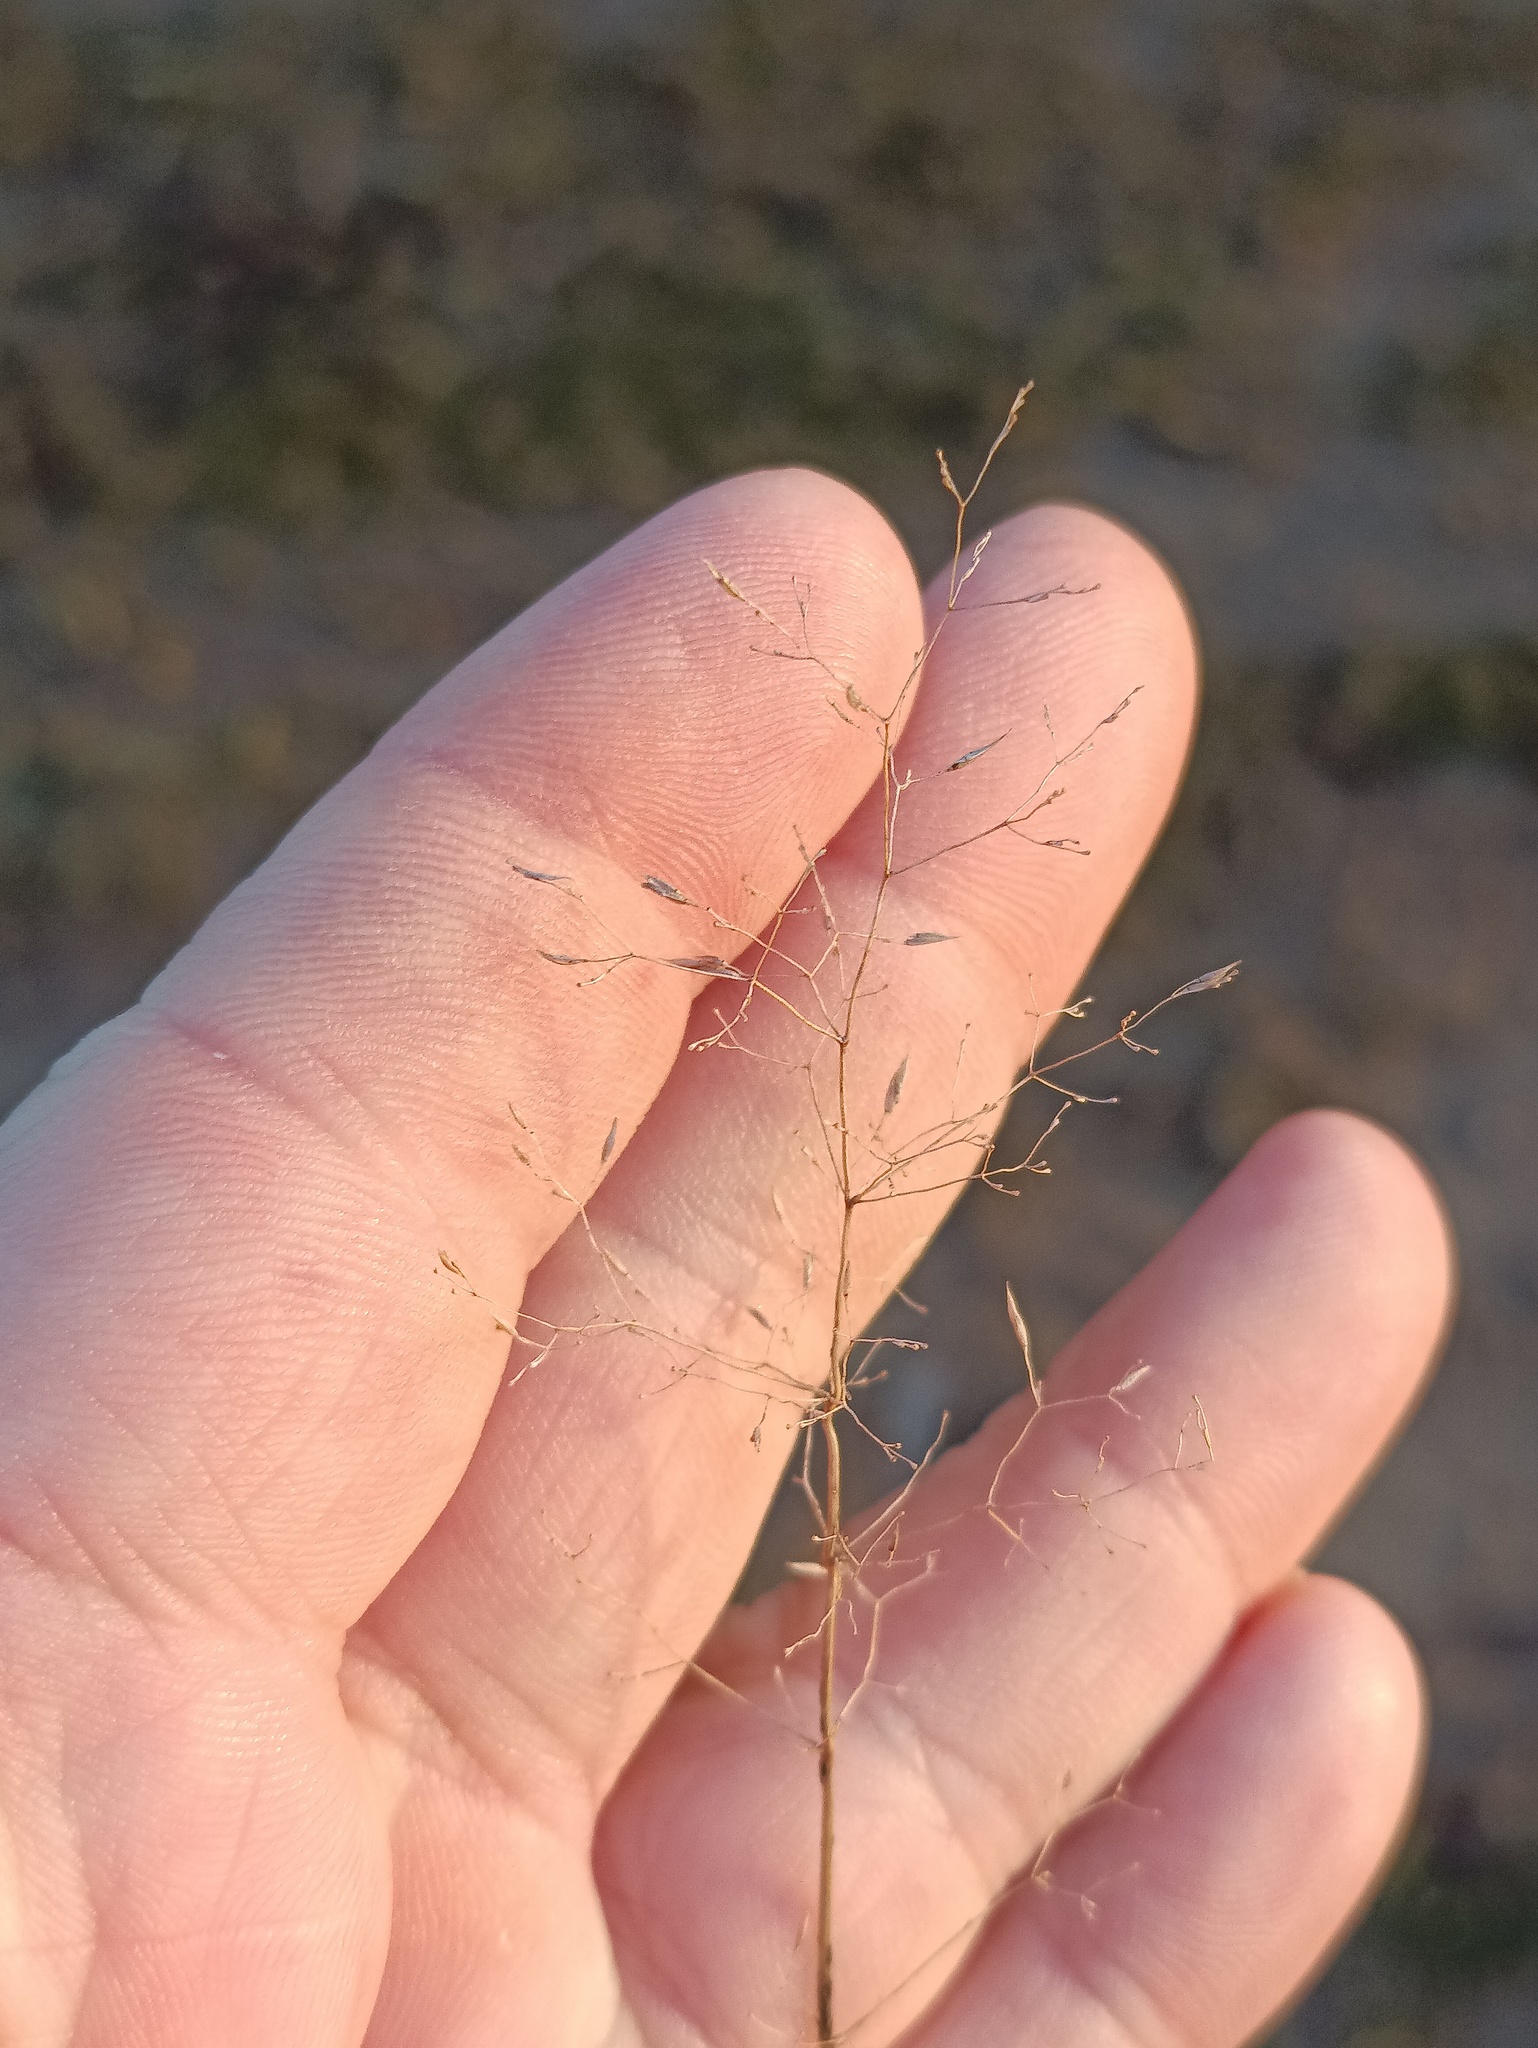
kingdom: Plantae
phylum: Tracheophyta
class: Liliopsida
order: Poales
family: Poaceae
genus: Agrostis
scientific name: Agrostis capillaris
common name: Colonial bentgrass
